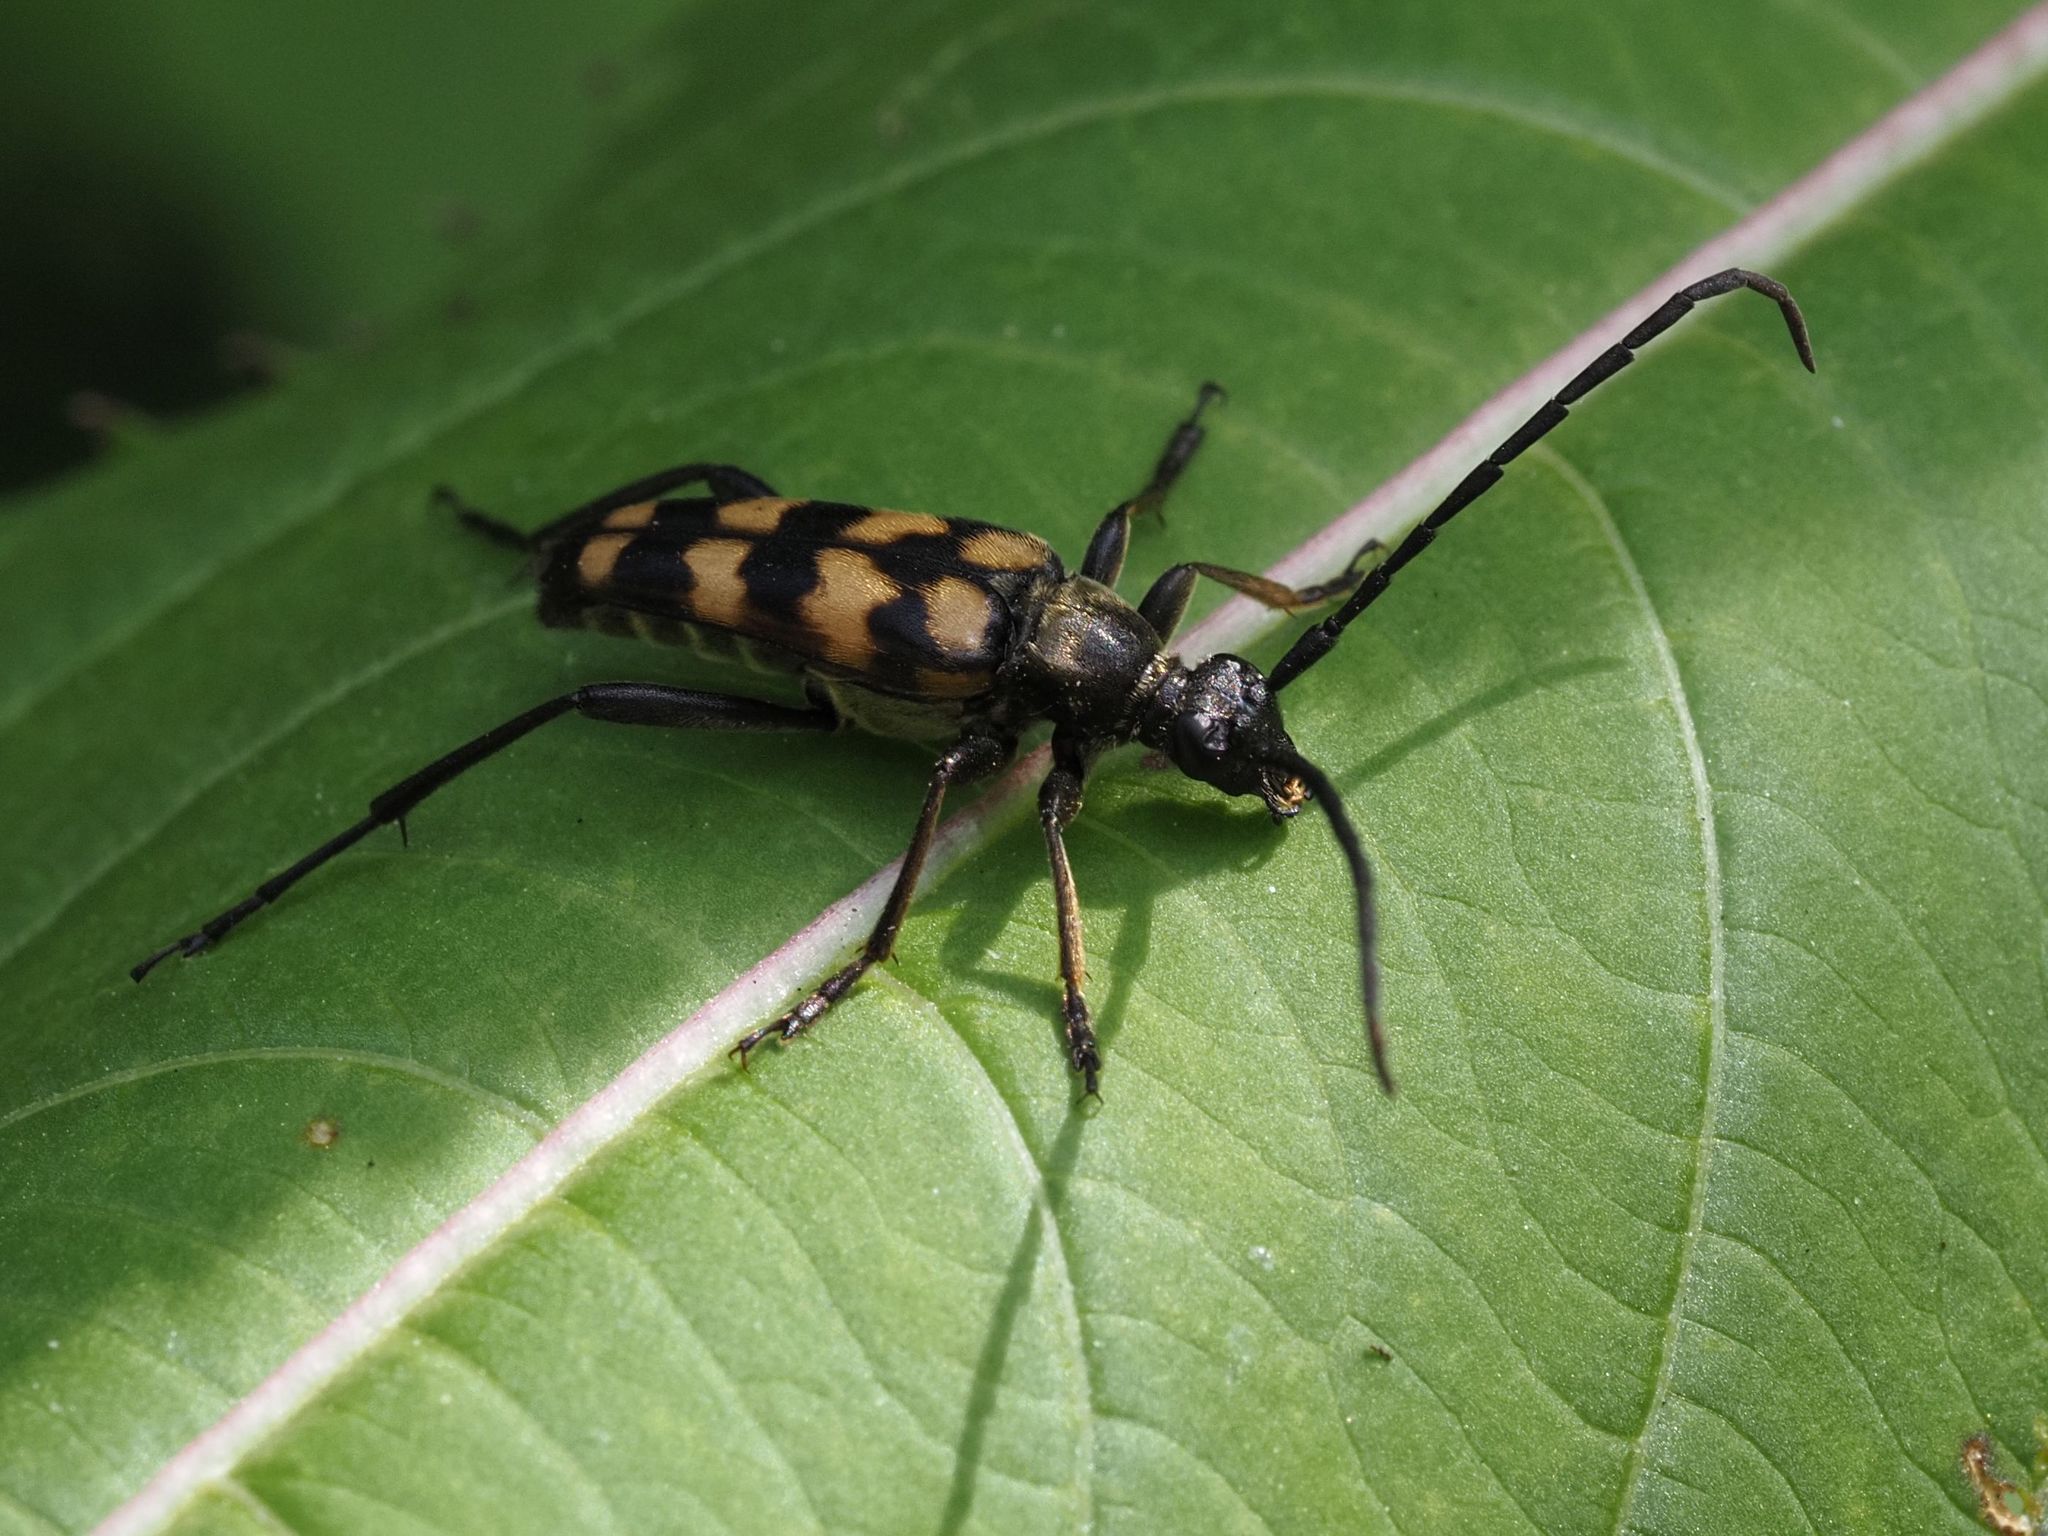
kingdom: Animalia
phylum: Arthropoda
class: Insecta
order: Coleoptera
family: Cerambycidae
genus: Leptura
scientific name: Leptura quadrifasciata
